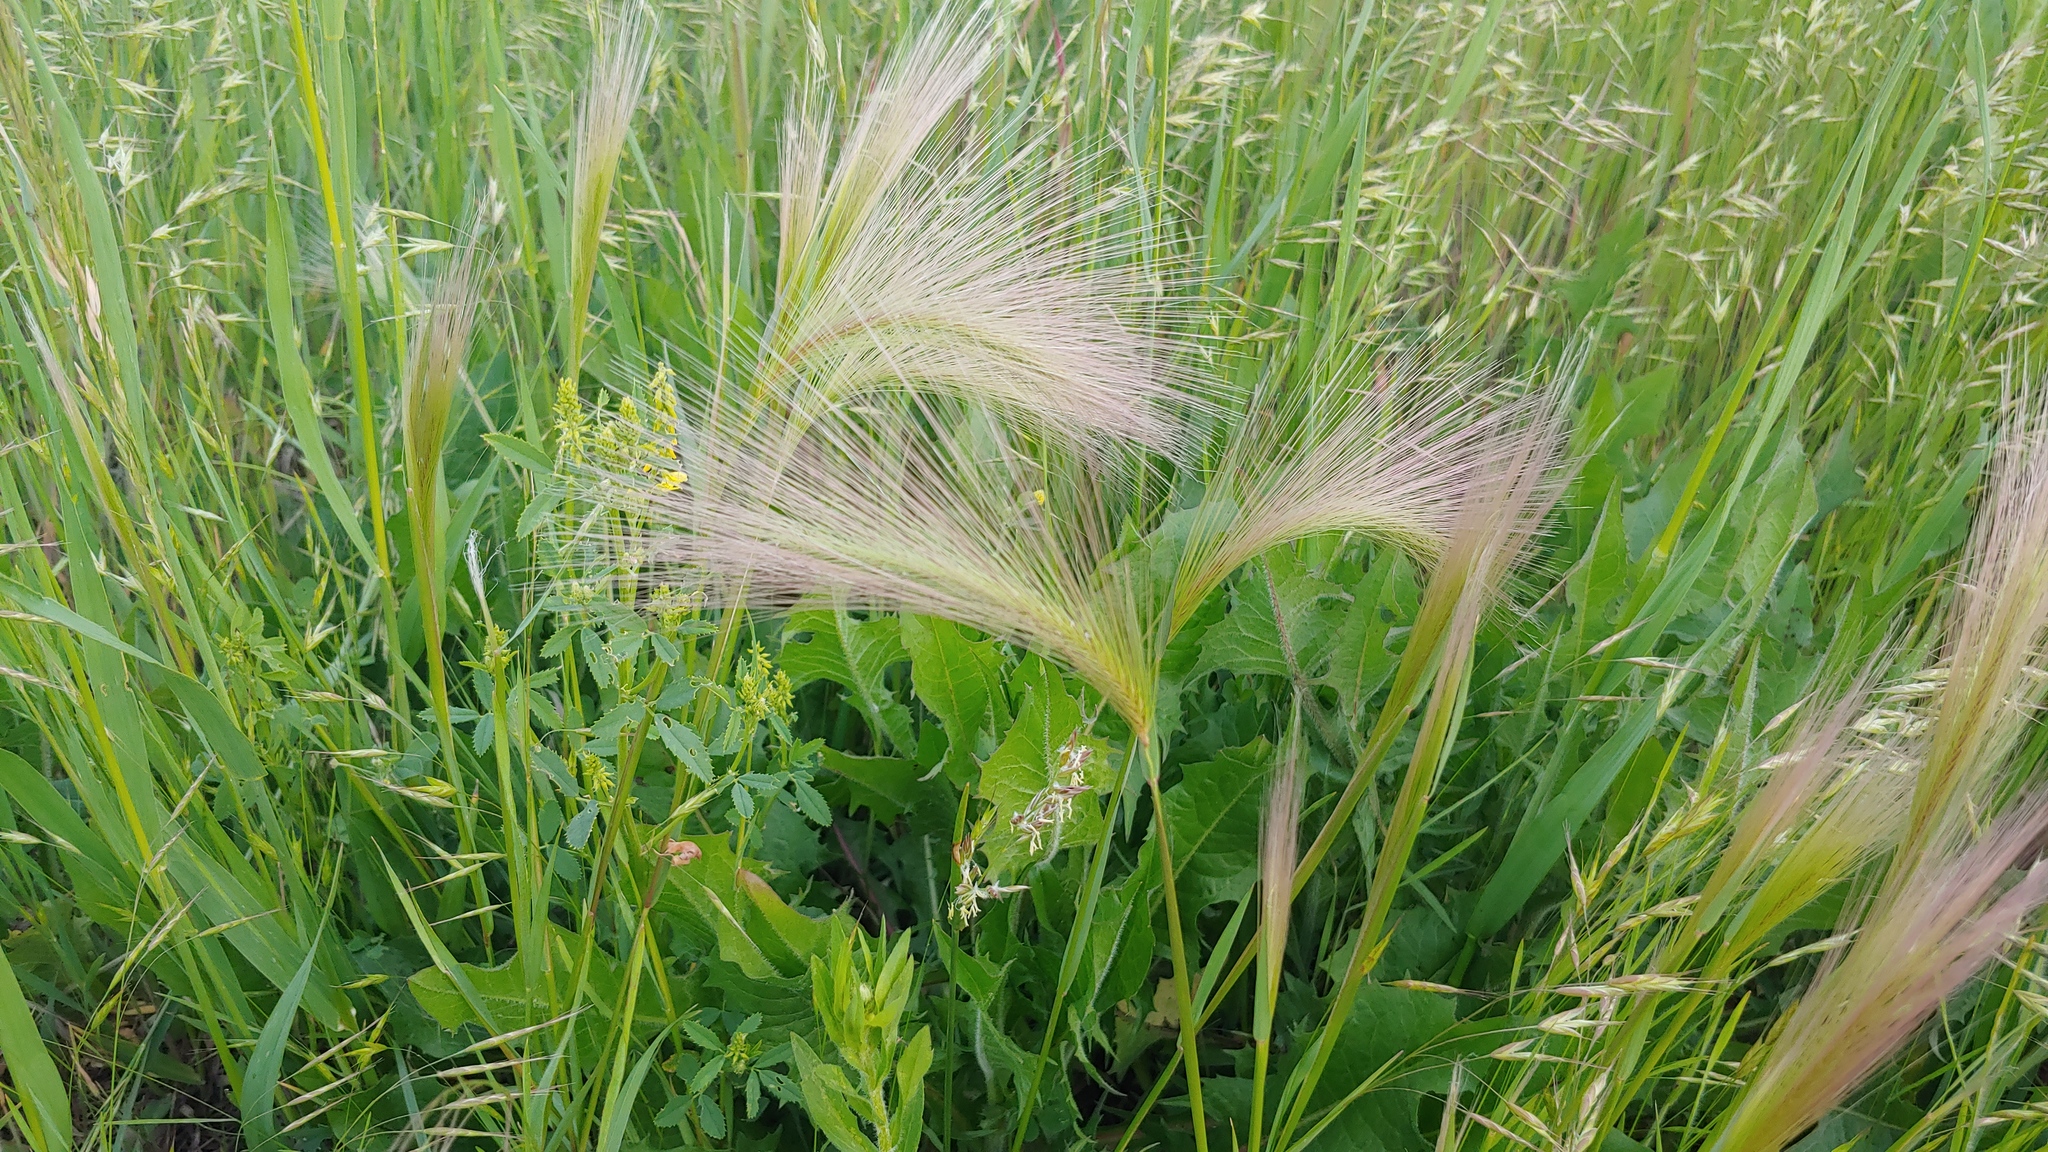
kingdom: Plantae
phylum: Tracheophyta
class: Liliopsida
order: Poales
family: Poaceae
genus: Hordeum
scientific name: Hordeum jubatum
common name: Foxtail barley
